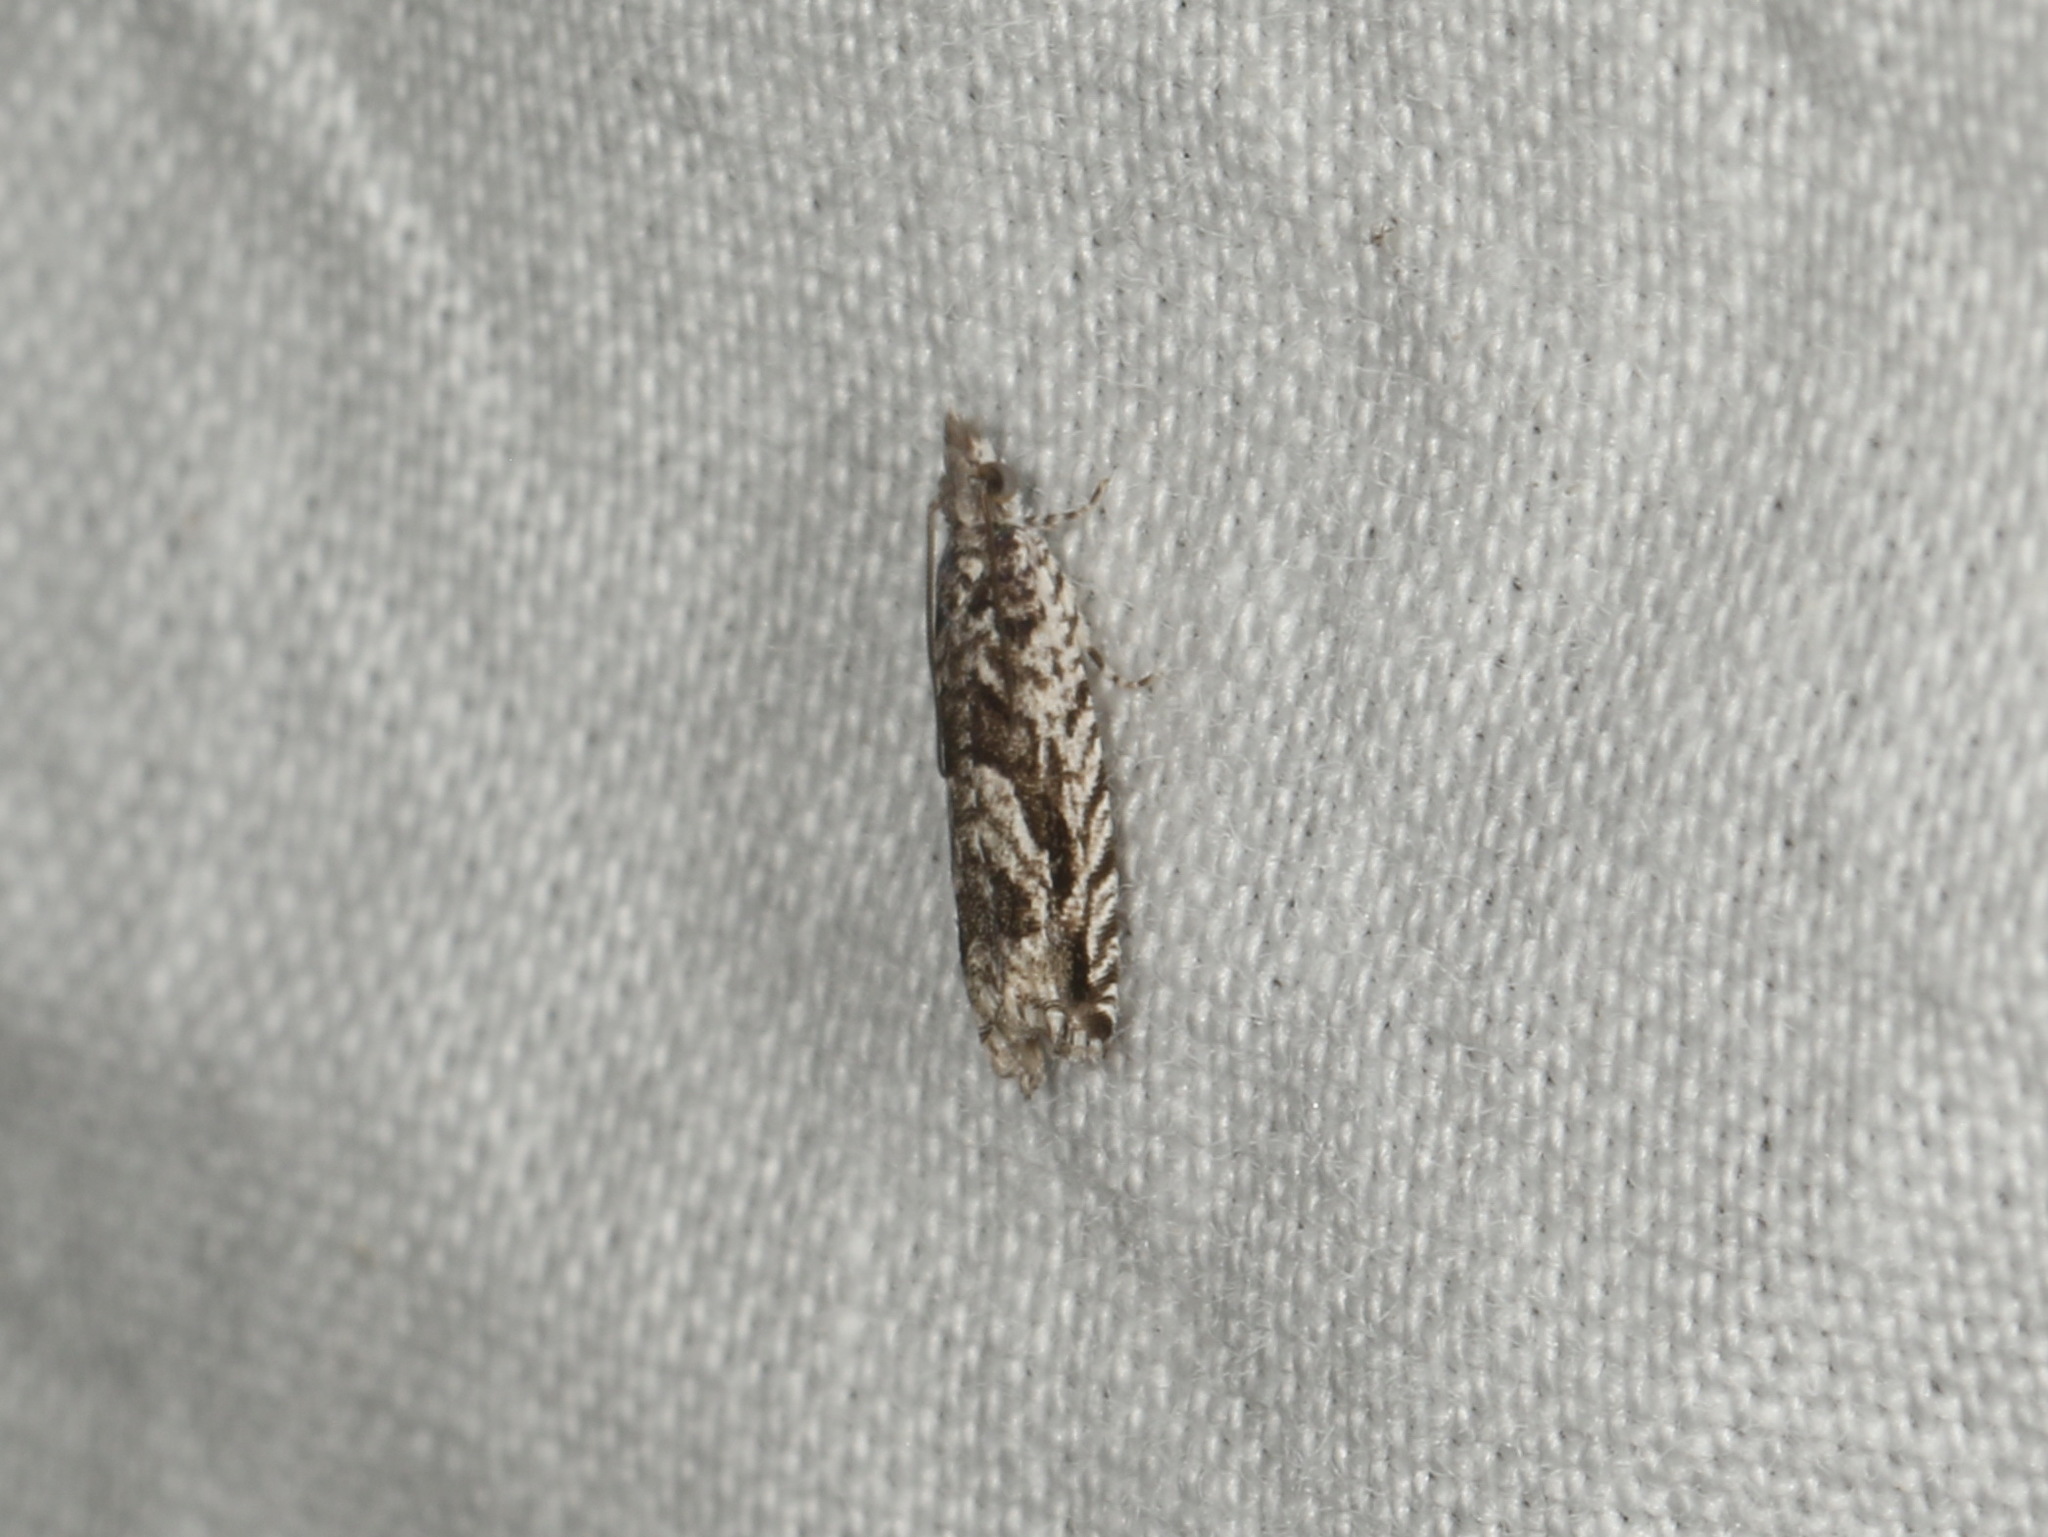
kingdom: Animalia
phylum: Arthropoda
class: Insecta
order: Lepidoptera
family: Tortricidae
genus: Holocola
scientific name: Holocola thalassinana
